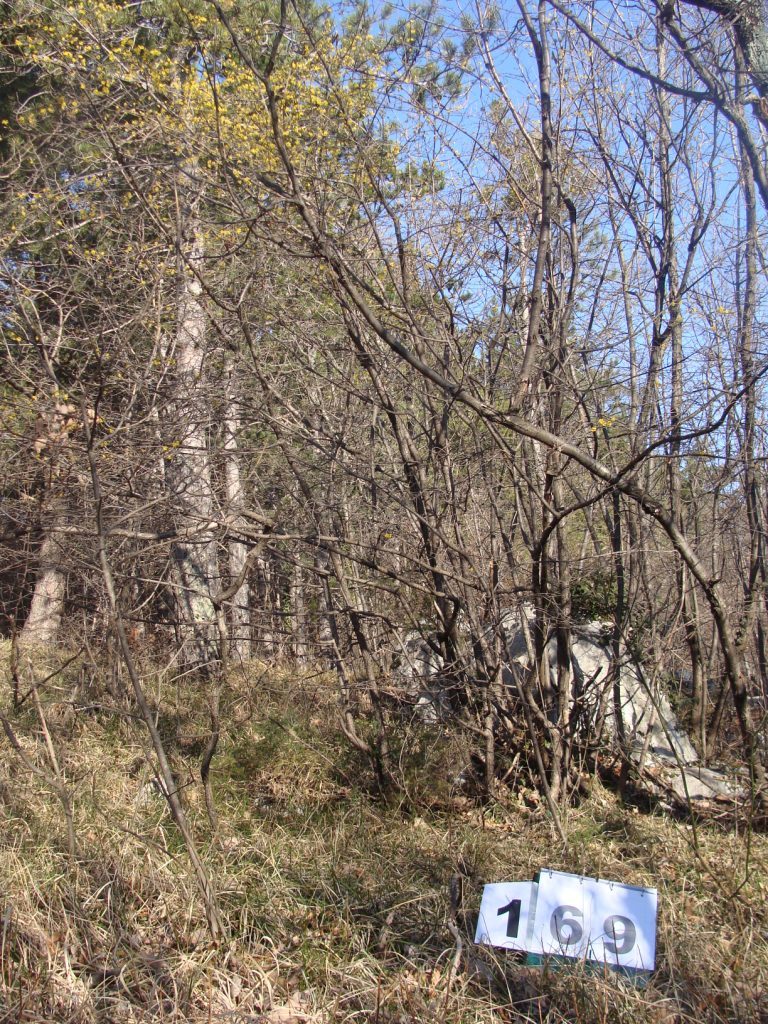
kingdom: Plantae
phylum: Tracheophyta
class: Magnoliopsida
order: Cornales
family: Cornaceae
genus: Cornus
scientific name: Cornus mas
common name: Cornelian-cherry
